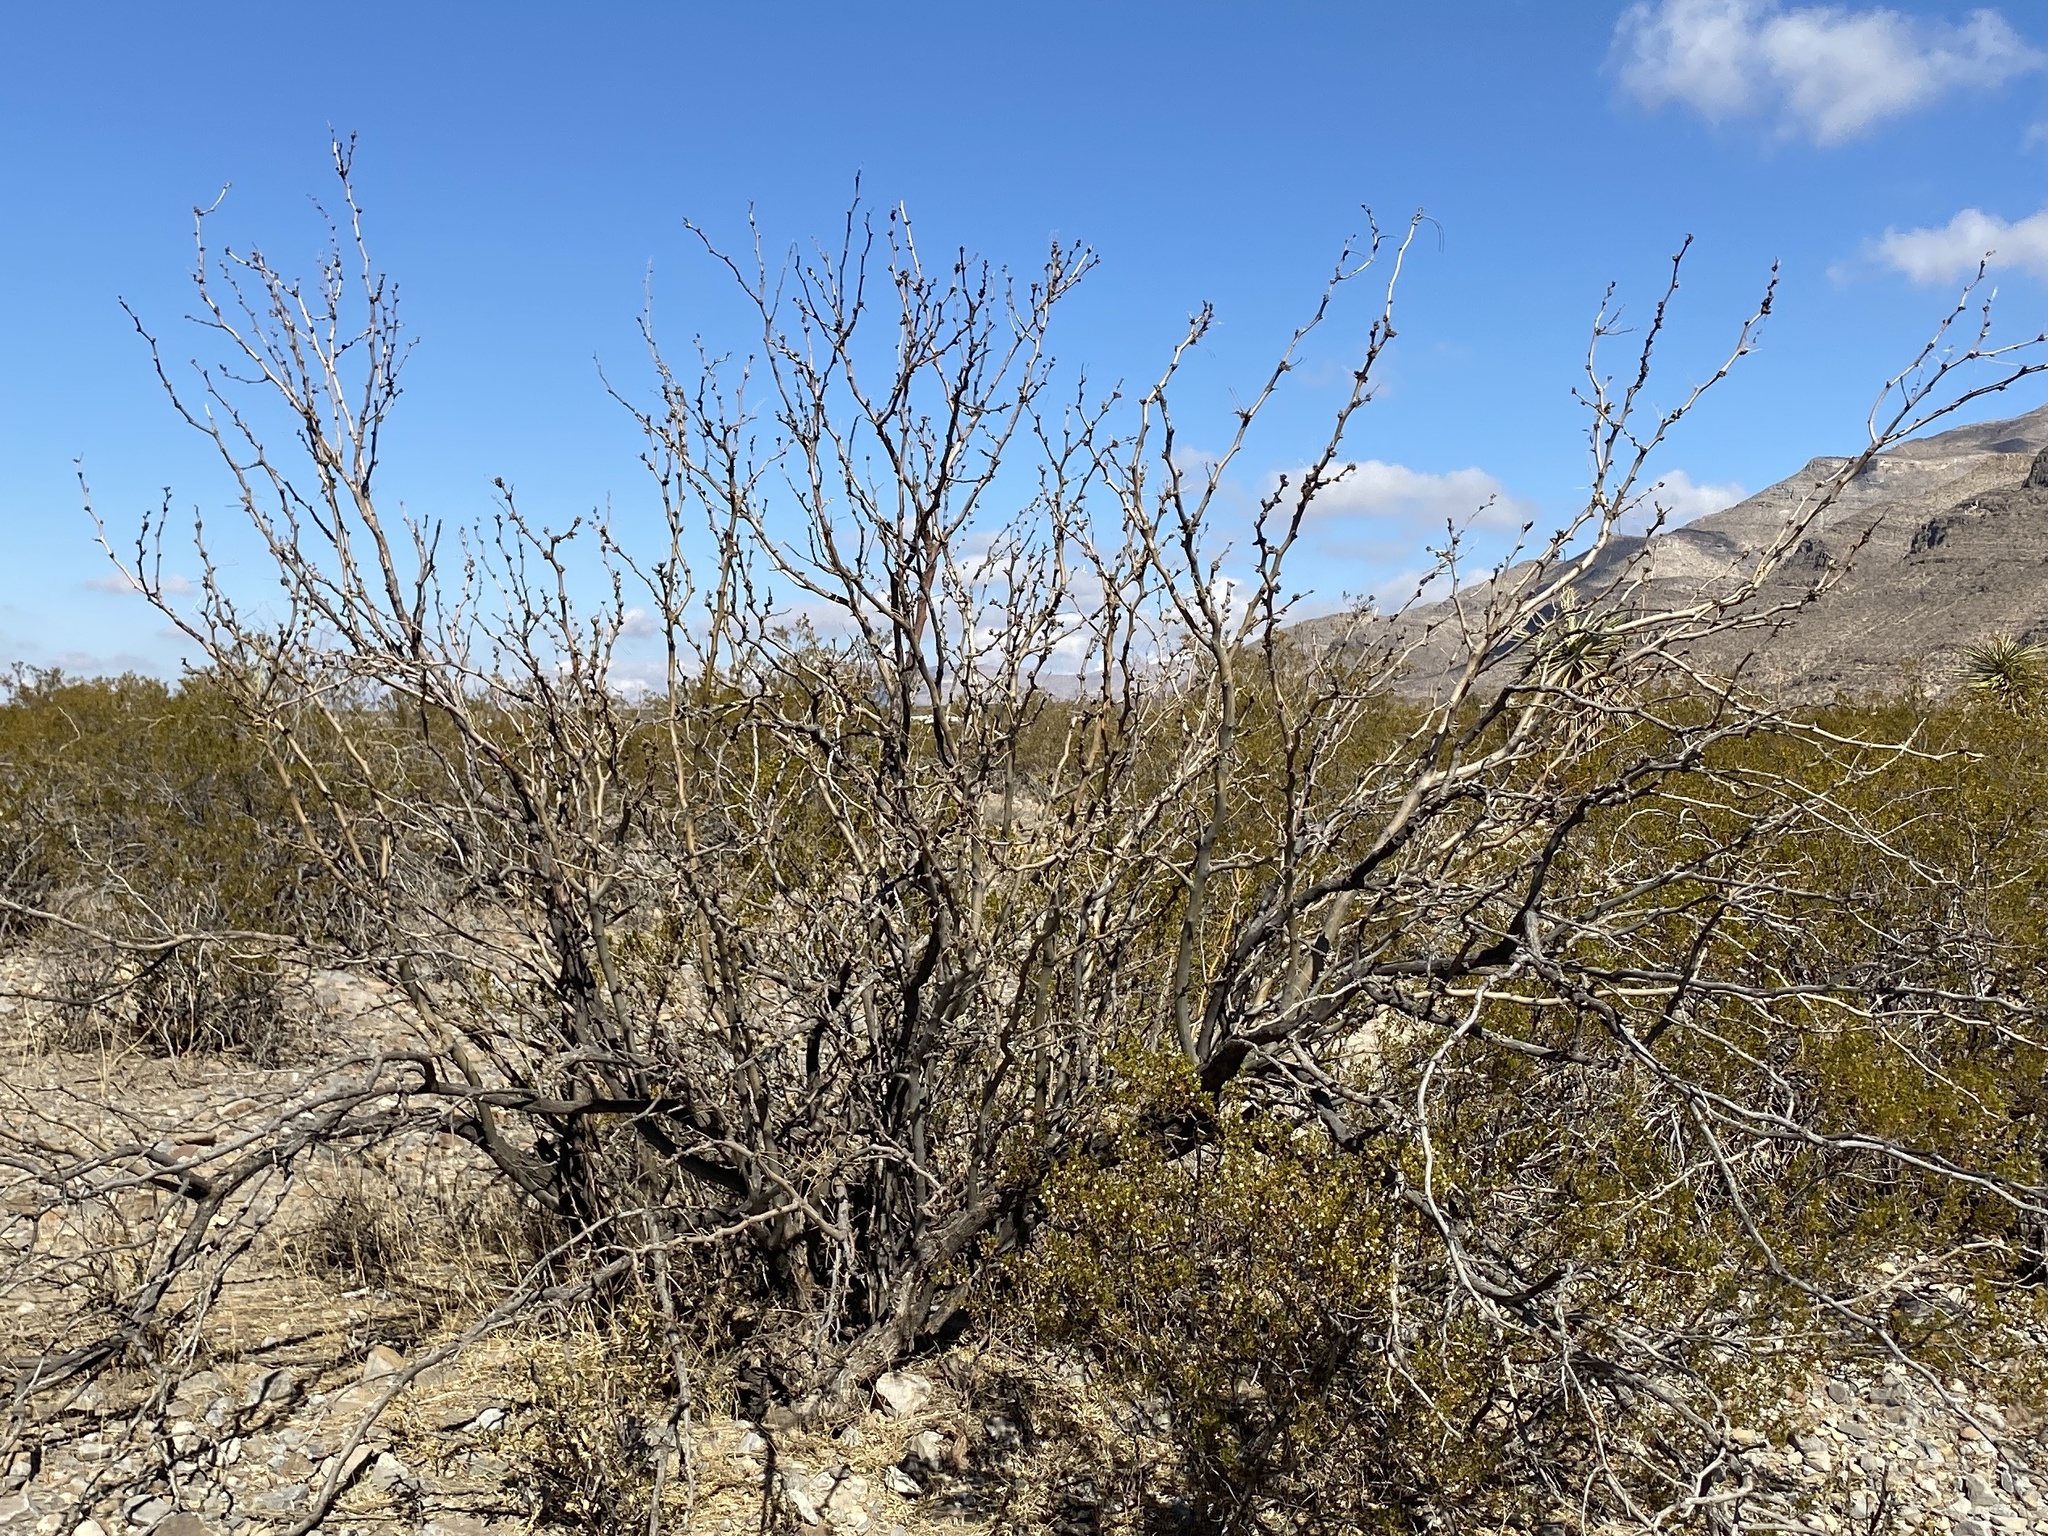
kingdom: Plantae
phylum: Tracheophyta
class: Magnoliopsida
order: Fabales
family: Fabaceae
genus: Prosopis
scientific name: Prosopis glandulosa
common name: Honey mesquite
